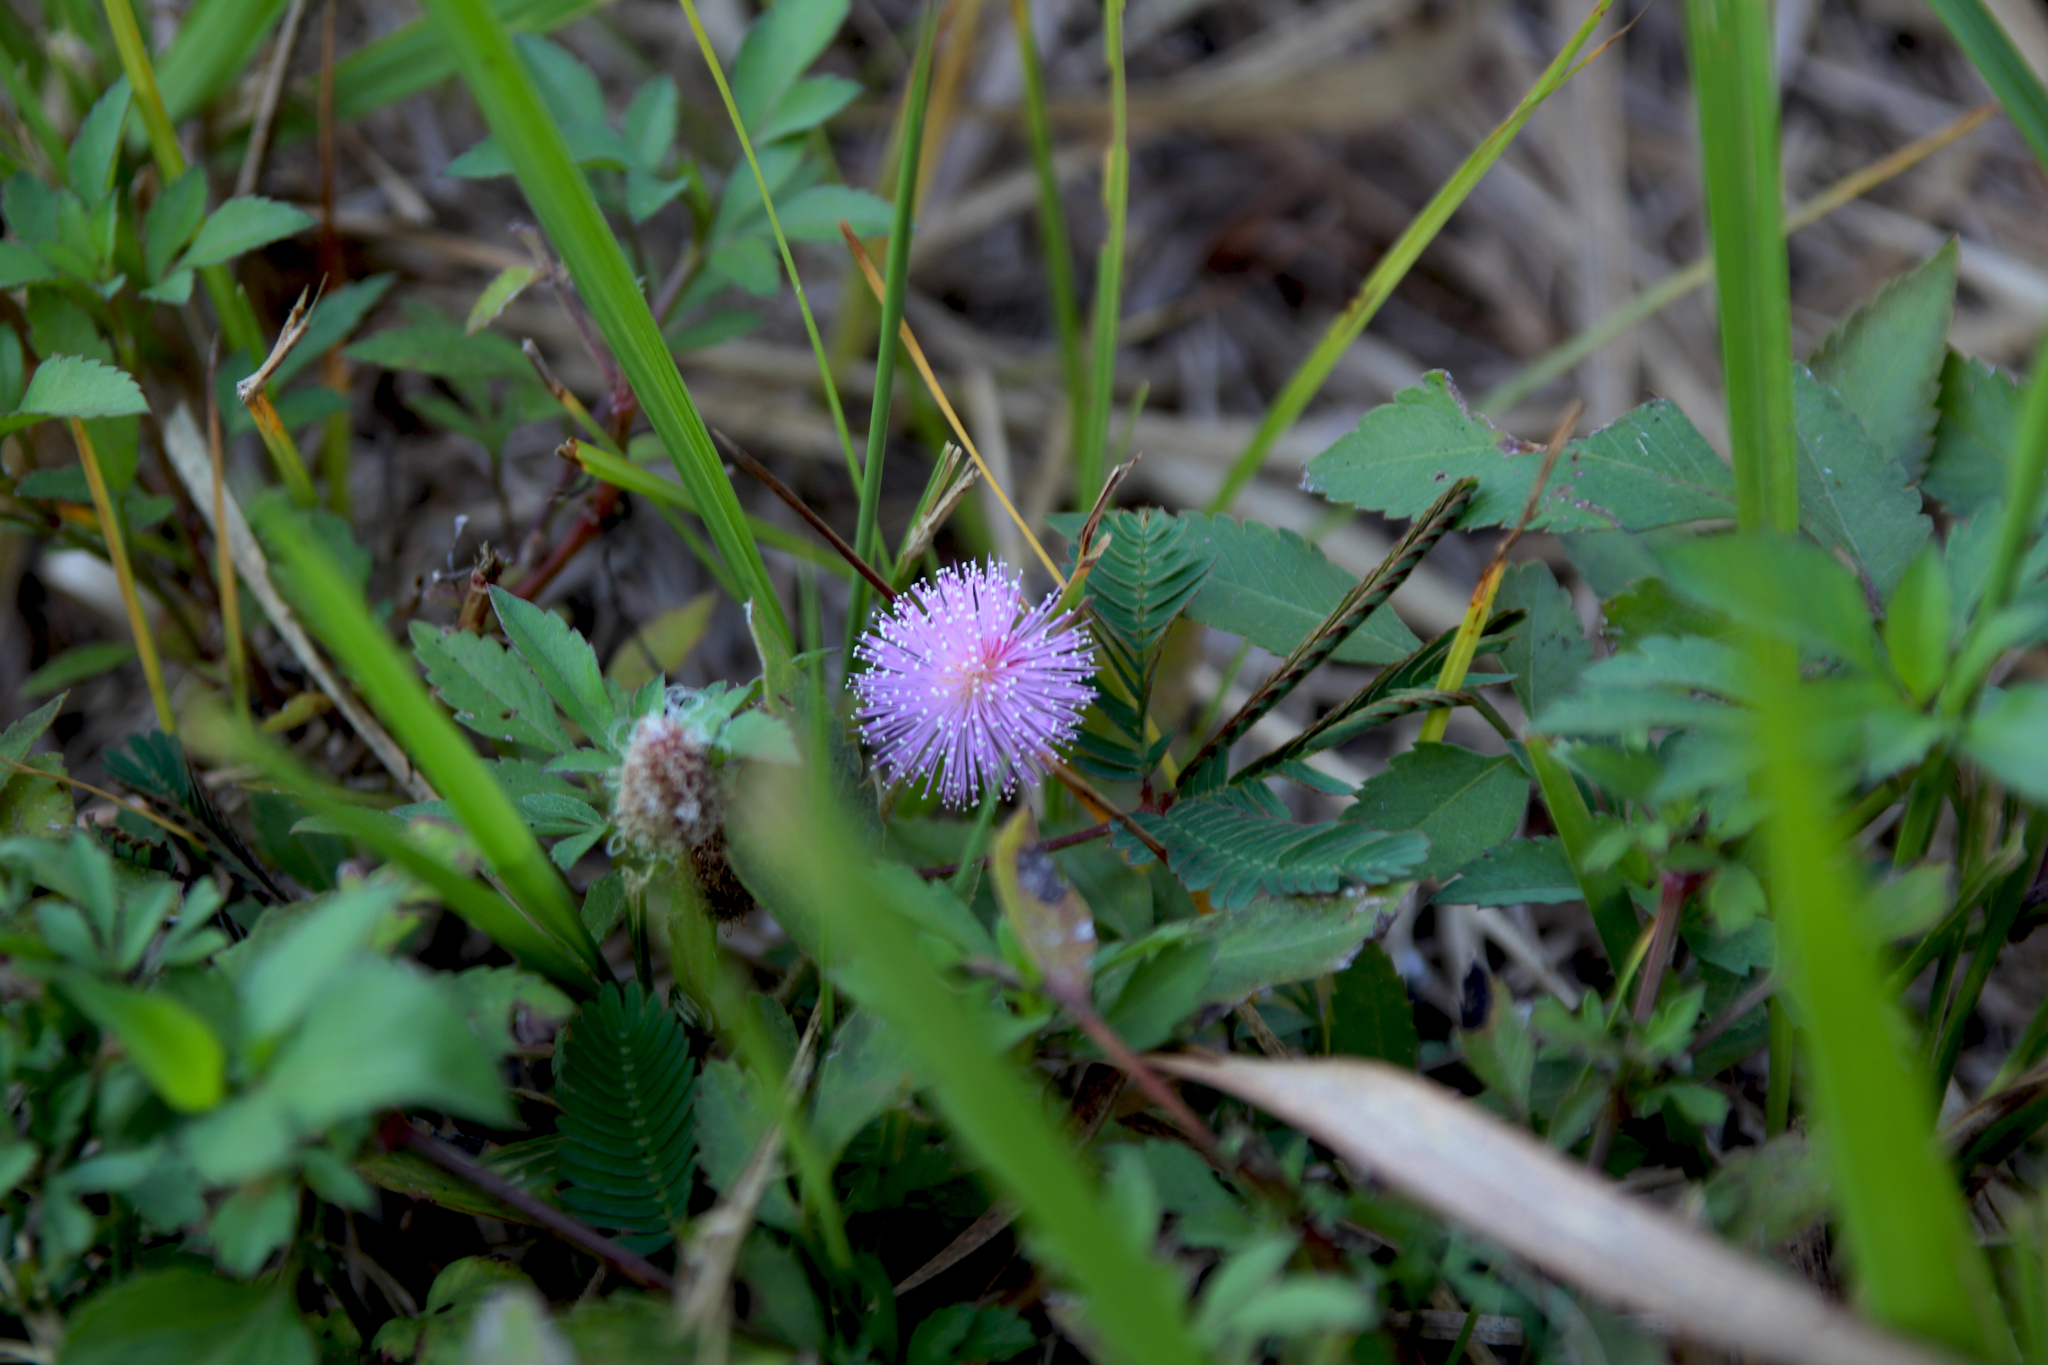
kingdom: Plantae
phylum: Tracheophyta
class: Magnoliopsida
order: Fabales
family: Fabaceae
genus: Mimosa
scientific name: Mimosa pudica
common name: Sensitive plant
